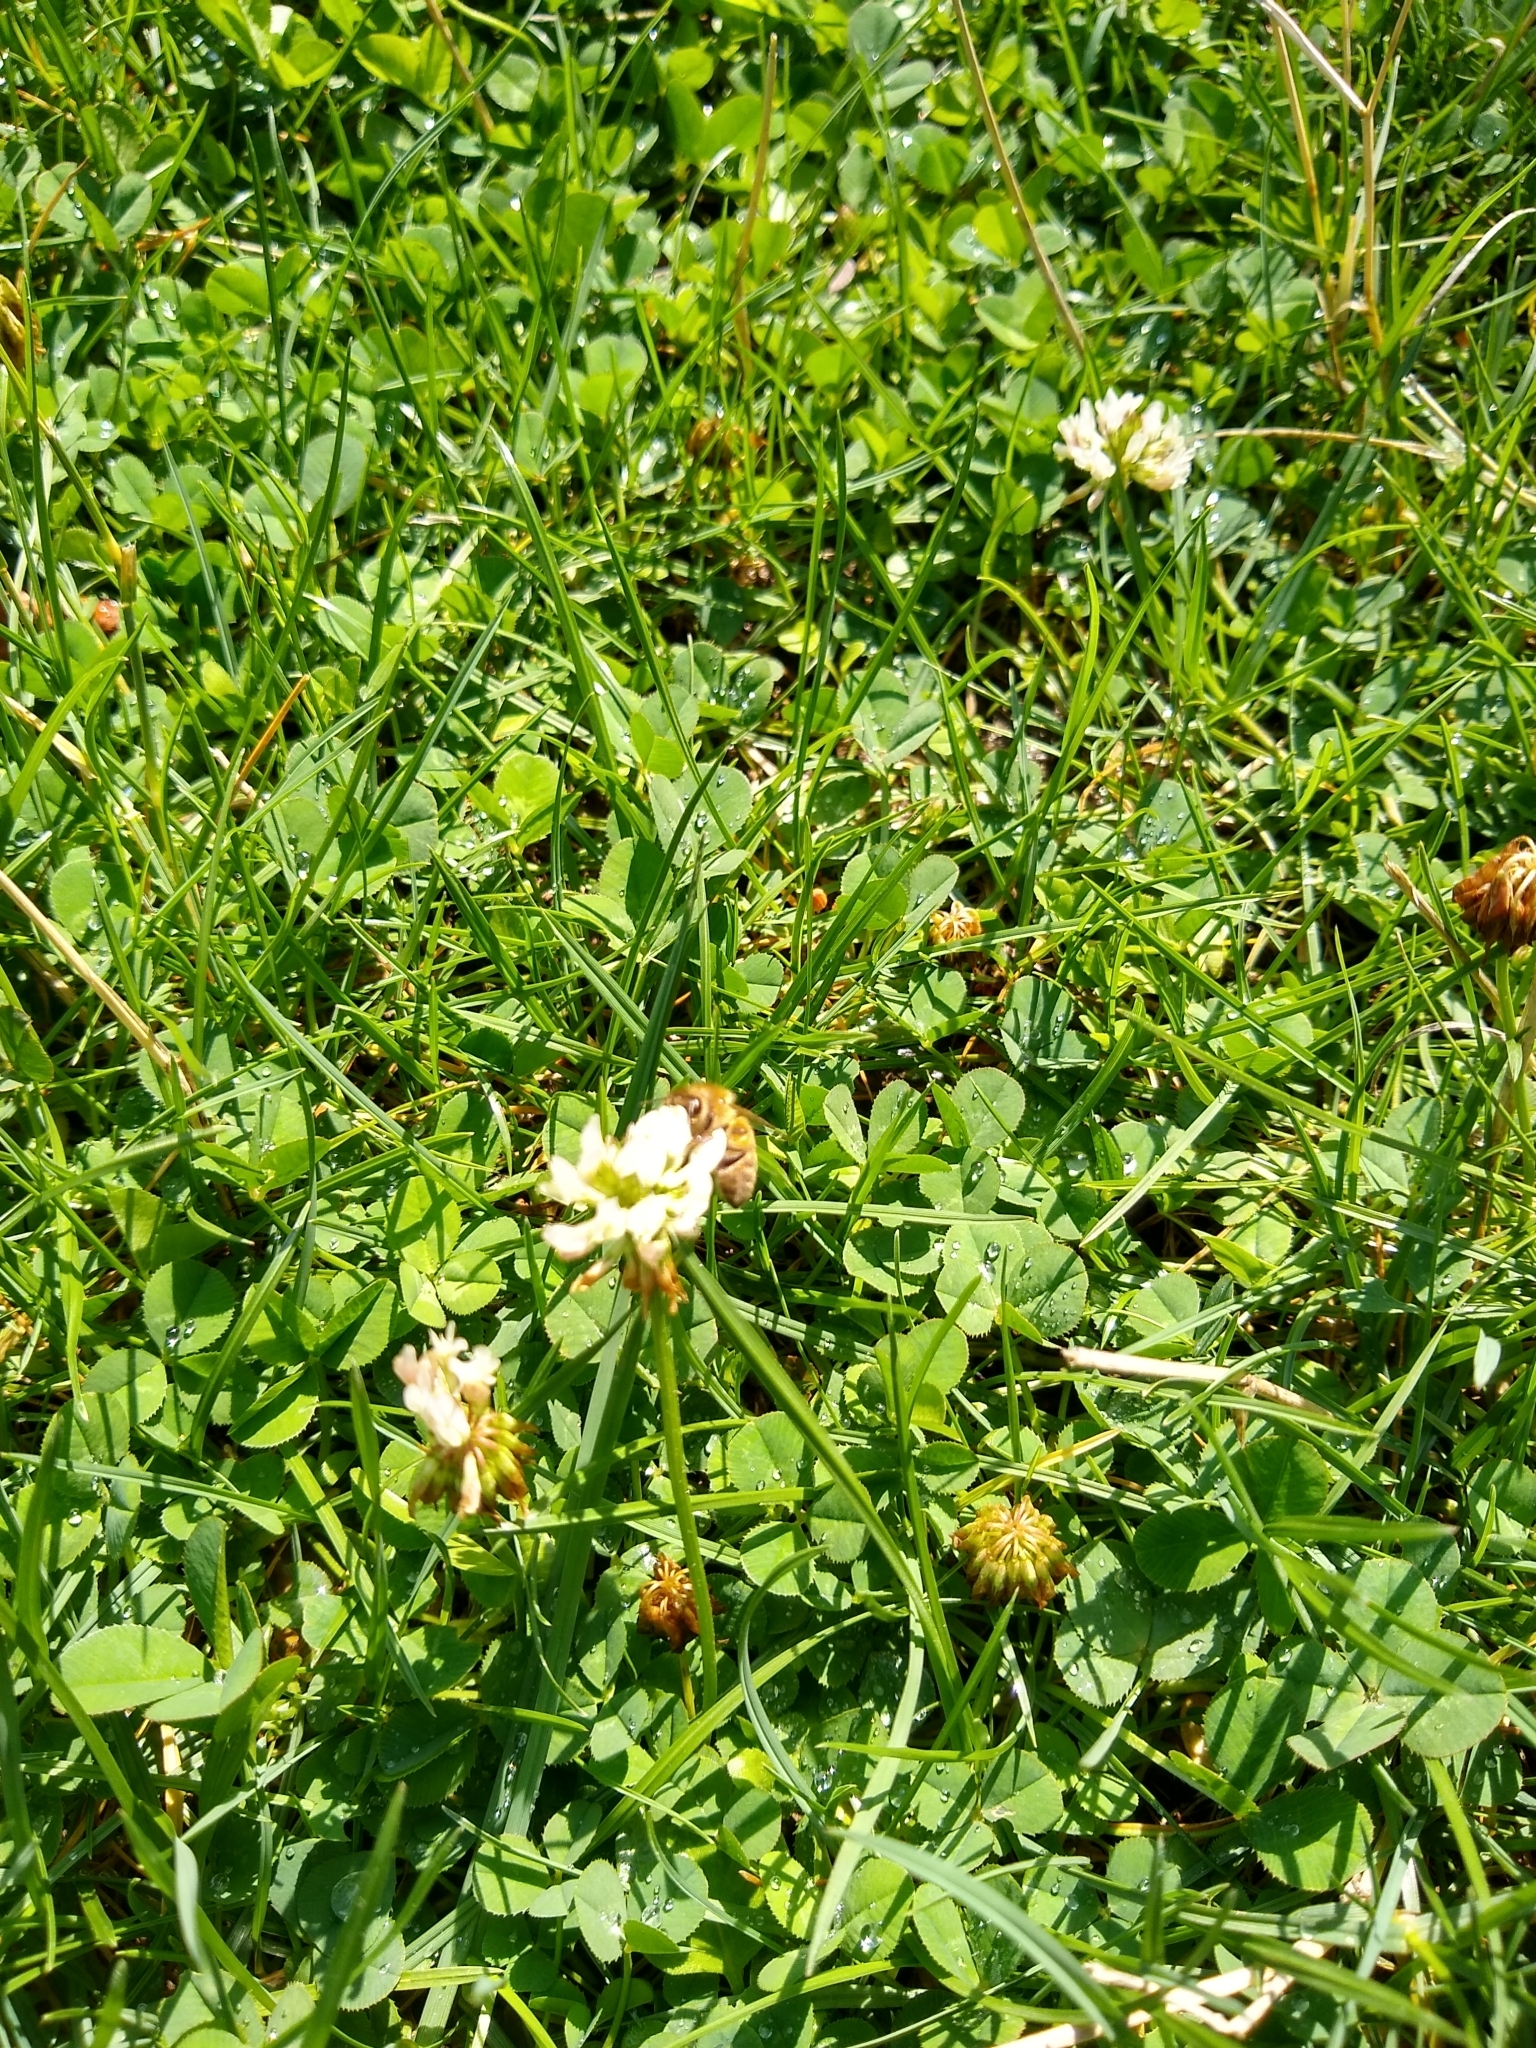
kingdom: Animalia
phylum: Arthropoda
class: Insecta
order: Hymenoptera
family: Apidae
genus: Apis
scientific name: Apis mellifera
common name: Honey bee
